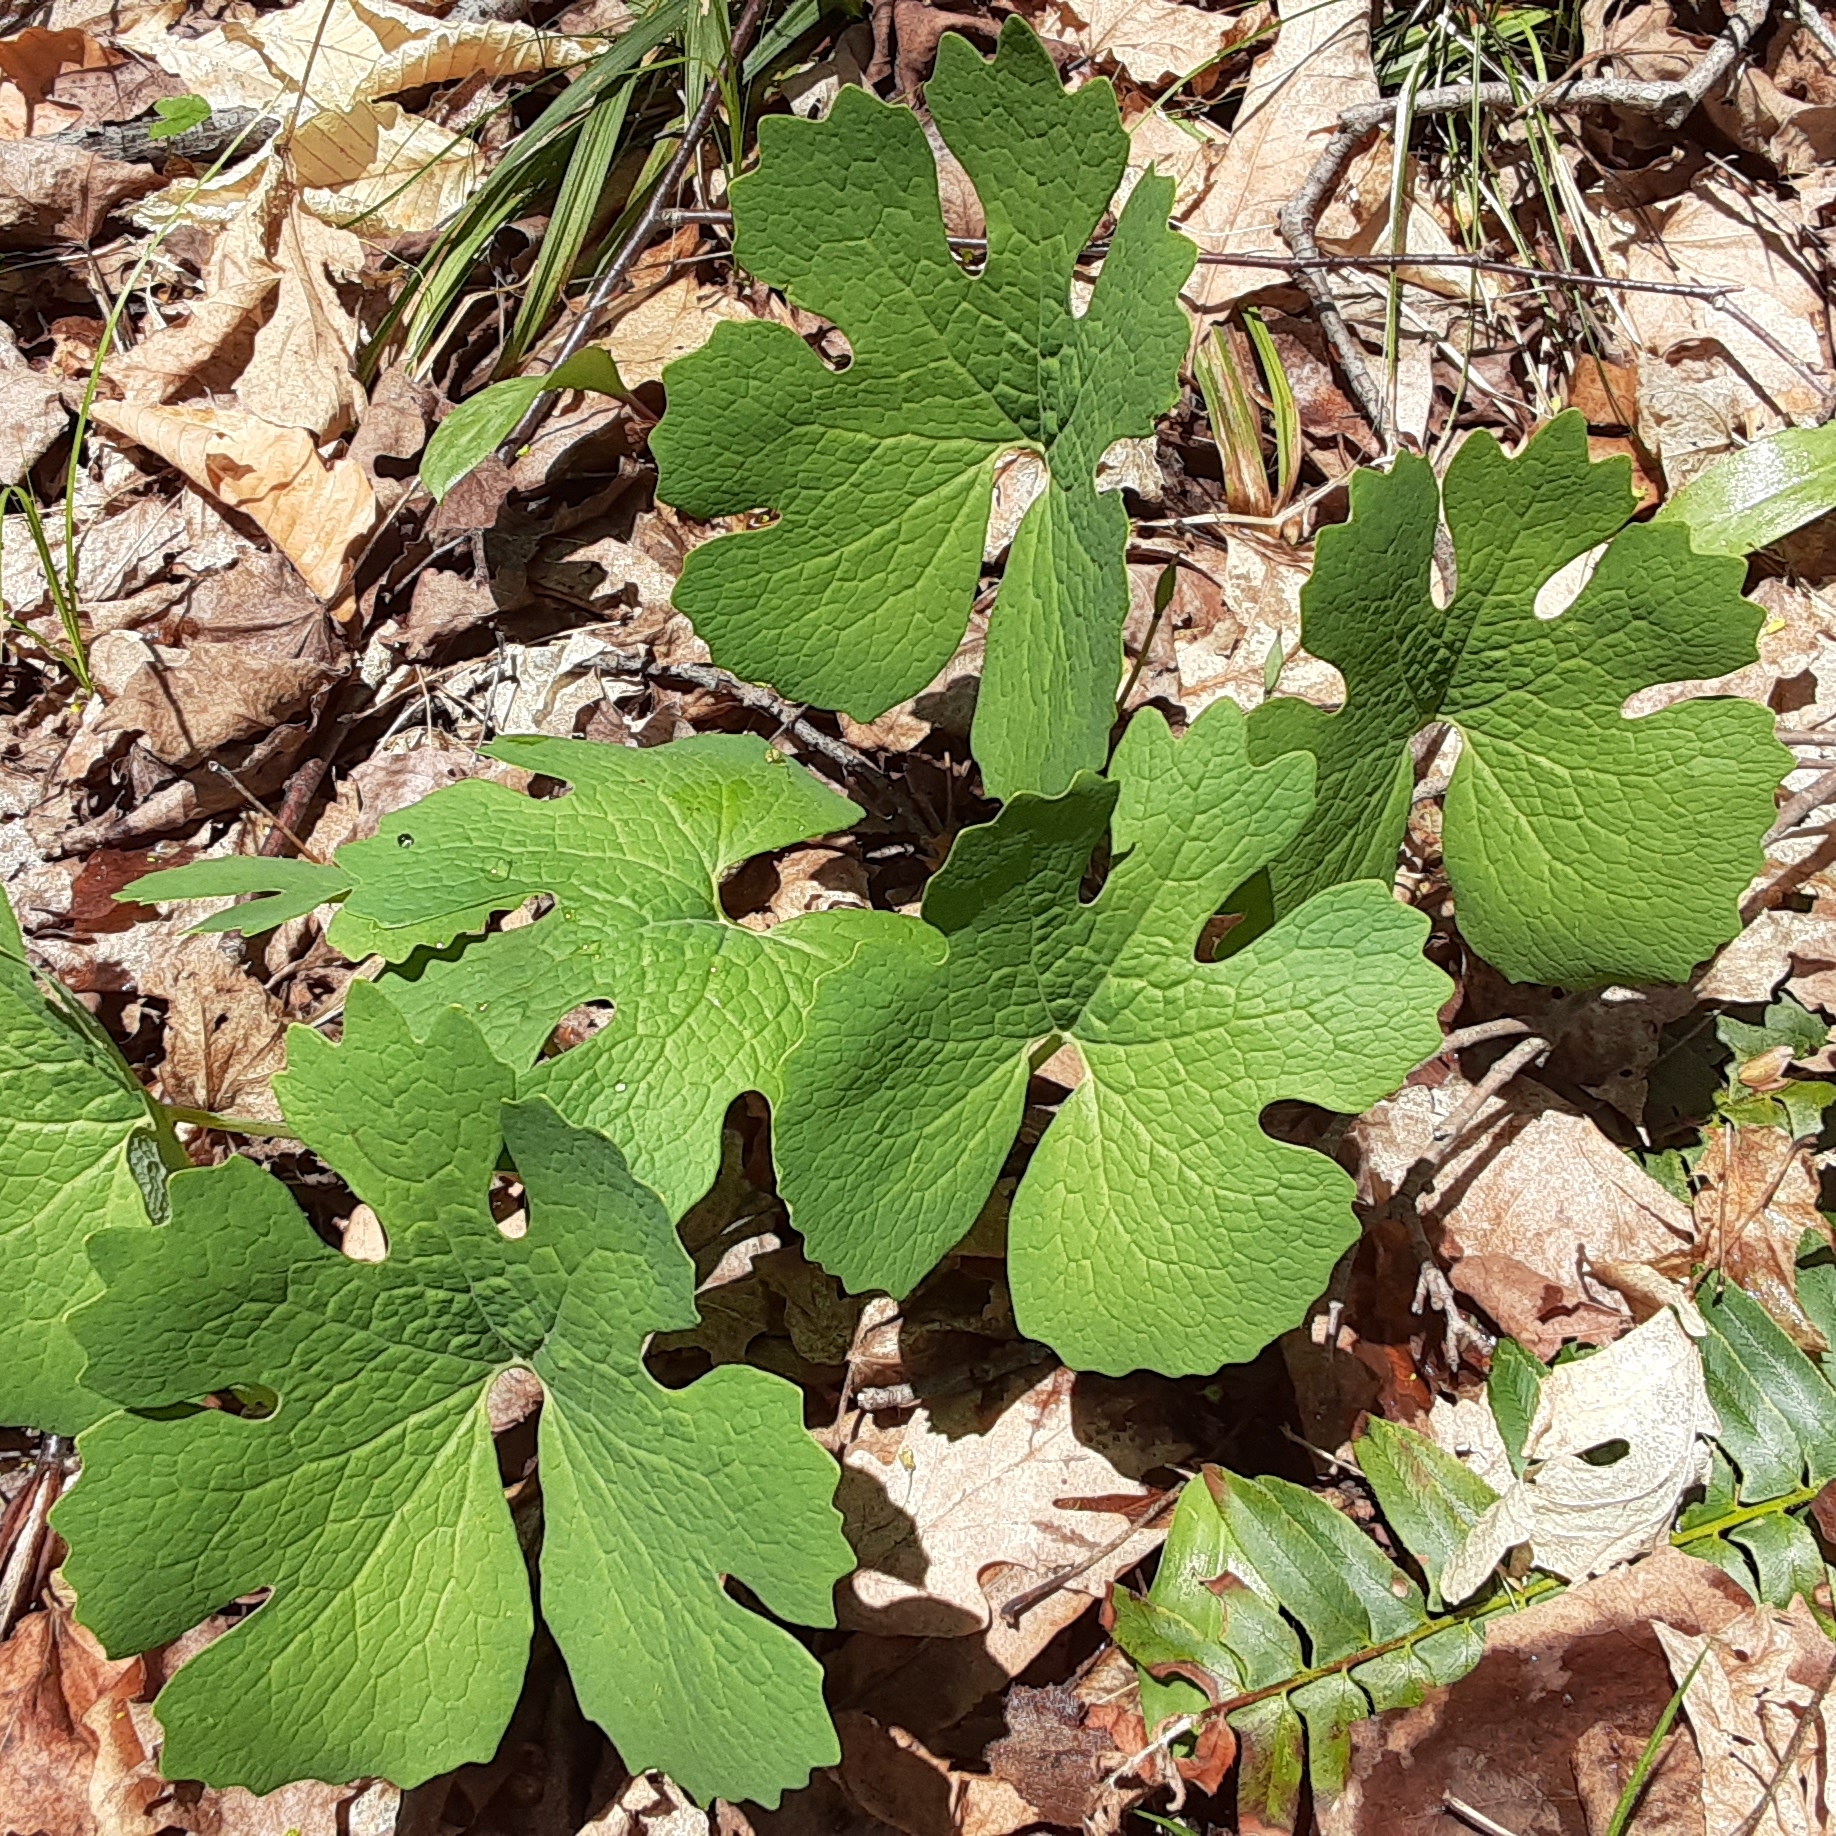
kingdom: Plantae
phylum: Tracheophyta
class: Magnoliopsida
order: Ranunculales
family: Papaveraceae
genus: Sanguinaria
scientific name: Sanguinaria canadensis
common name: Bloodroot
